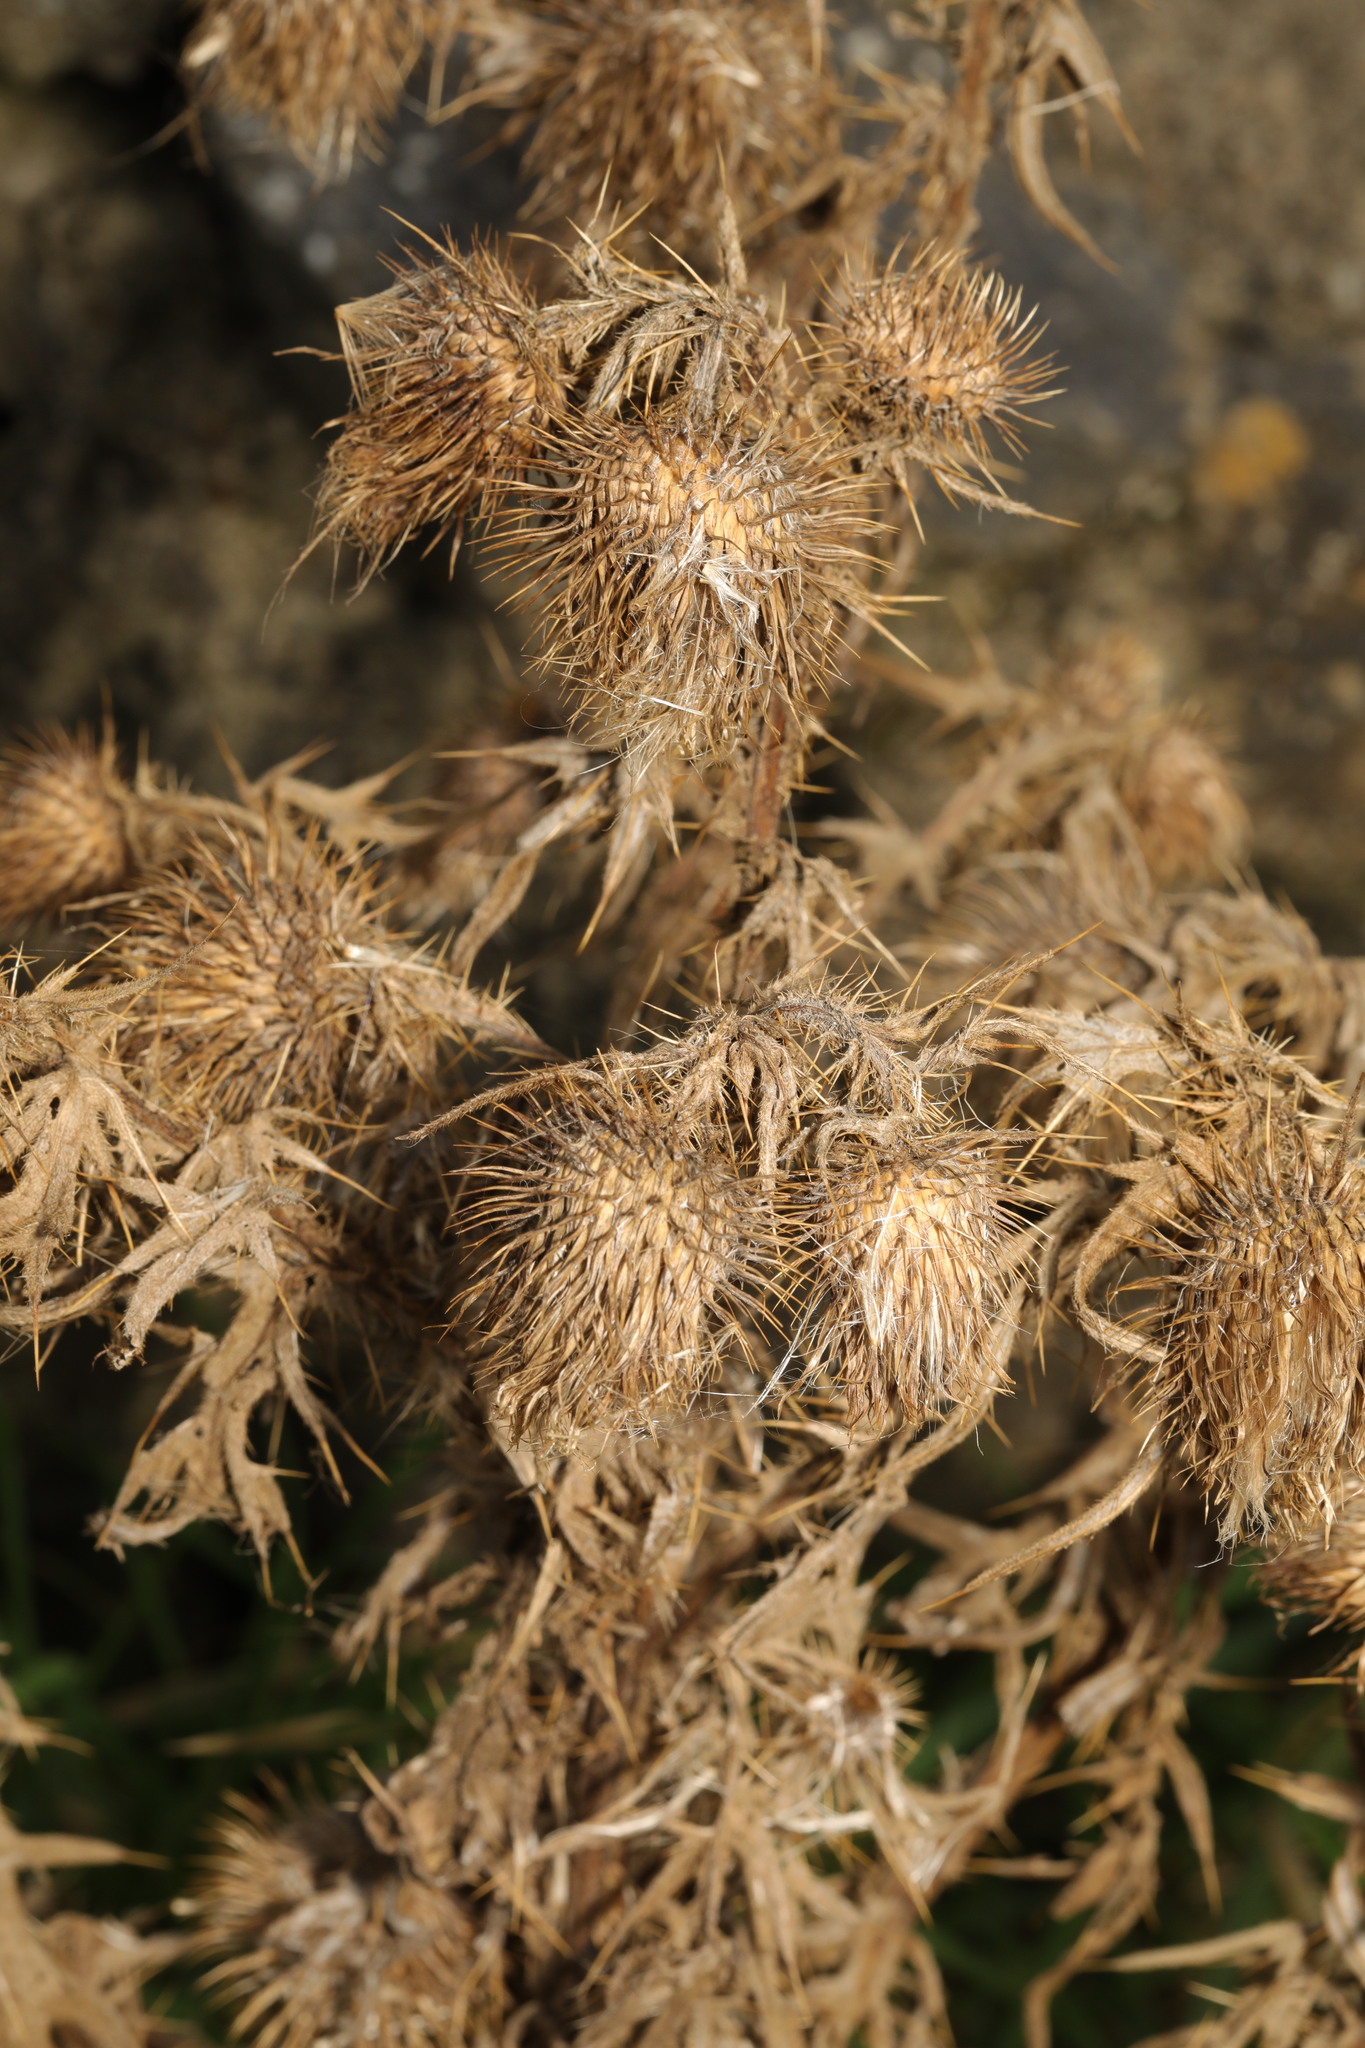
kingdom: Plantae
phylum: Tracheophyta
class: Magnoliopsida
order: Asterales
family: Asteraceae
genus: Cirsium
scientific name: Cirsium vulgare
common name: Bull thistle
